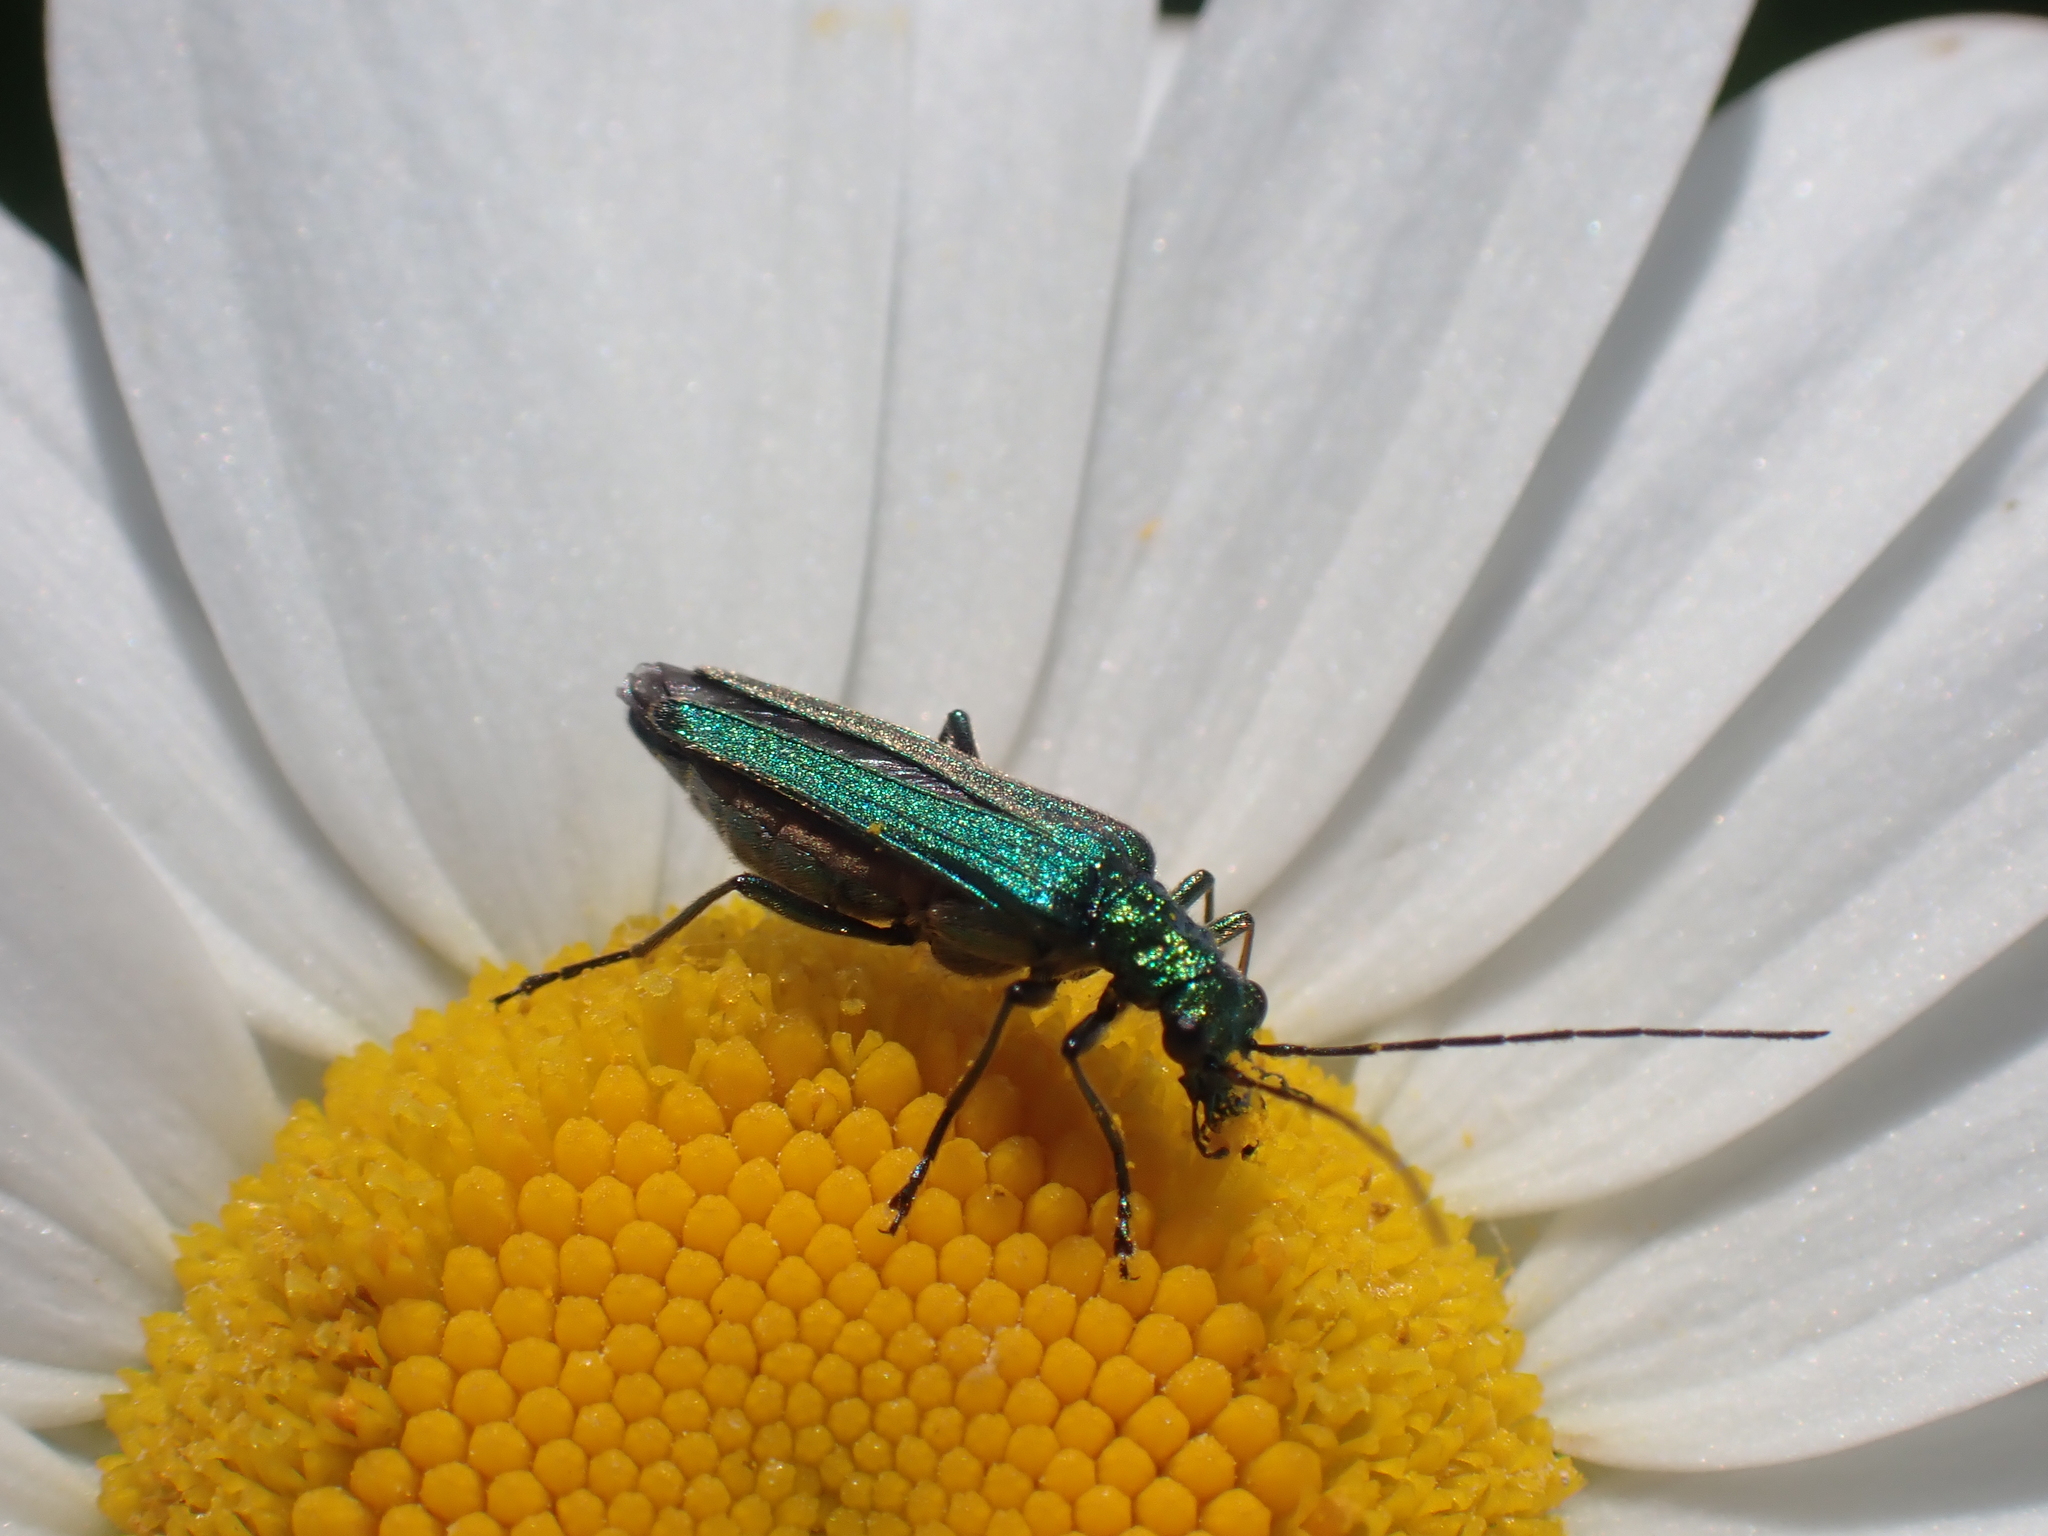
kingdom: Animalia
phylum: Arthropoda
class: Insecta
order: Coleoptera
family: Oedemeridae
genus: Oedemera
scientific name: Oedemera nobilis
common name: Swollen-thighed beetle
